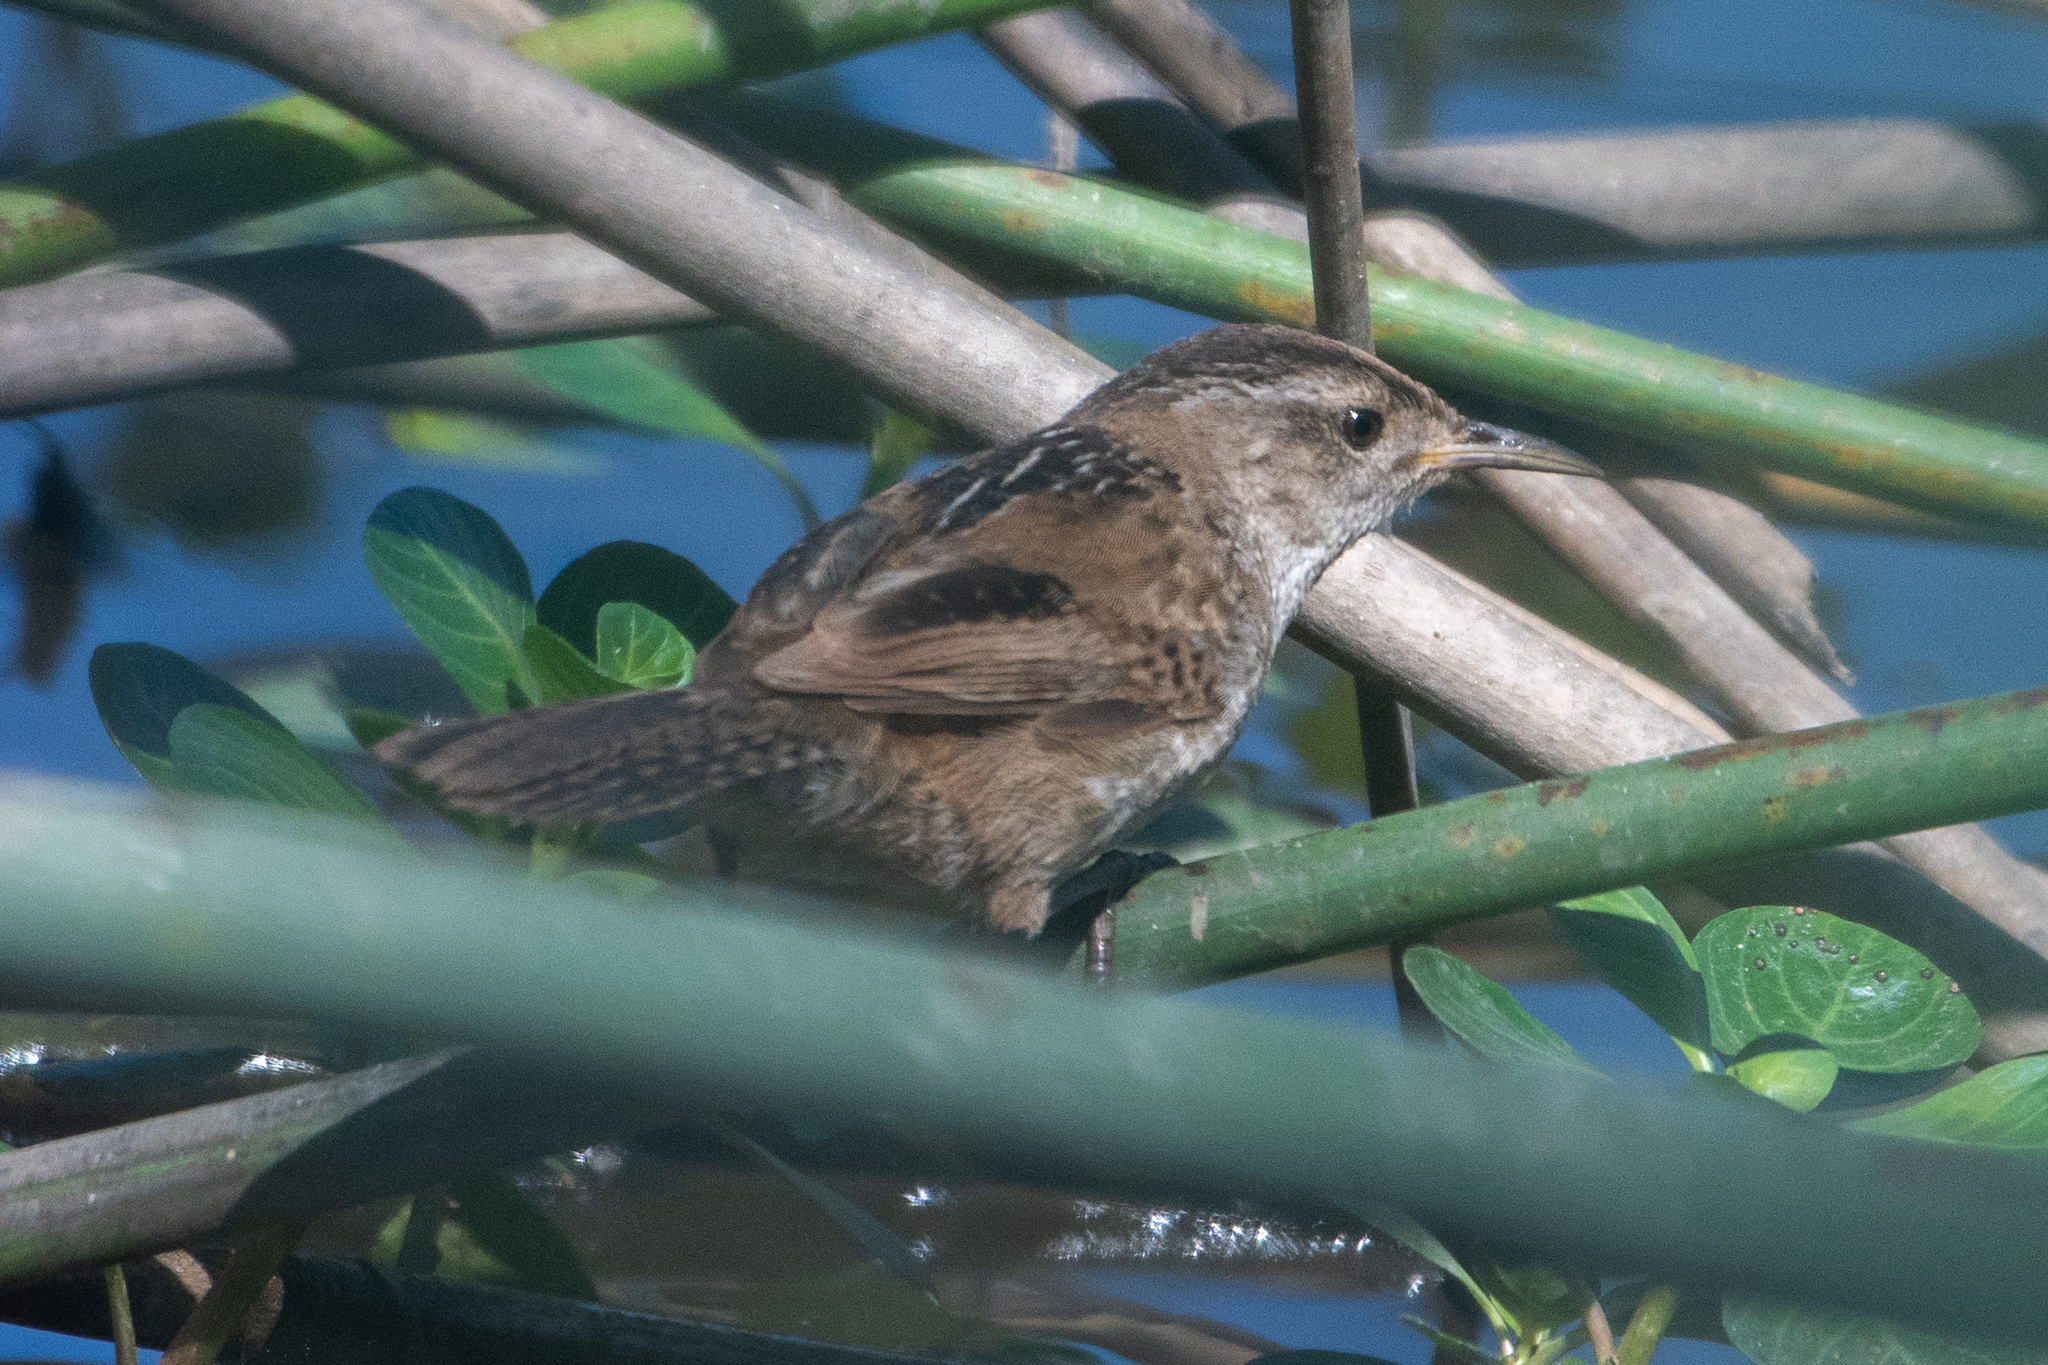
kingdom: Animalia
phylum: Chordata
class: Aves
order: Passeriformes
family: Troglodytidae
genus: Cistothorus
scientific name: Cistothorus palustris
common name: Marsh wren
